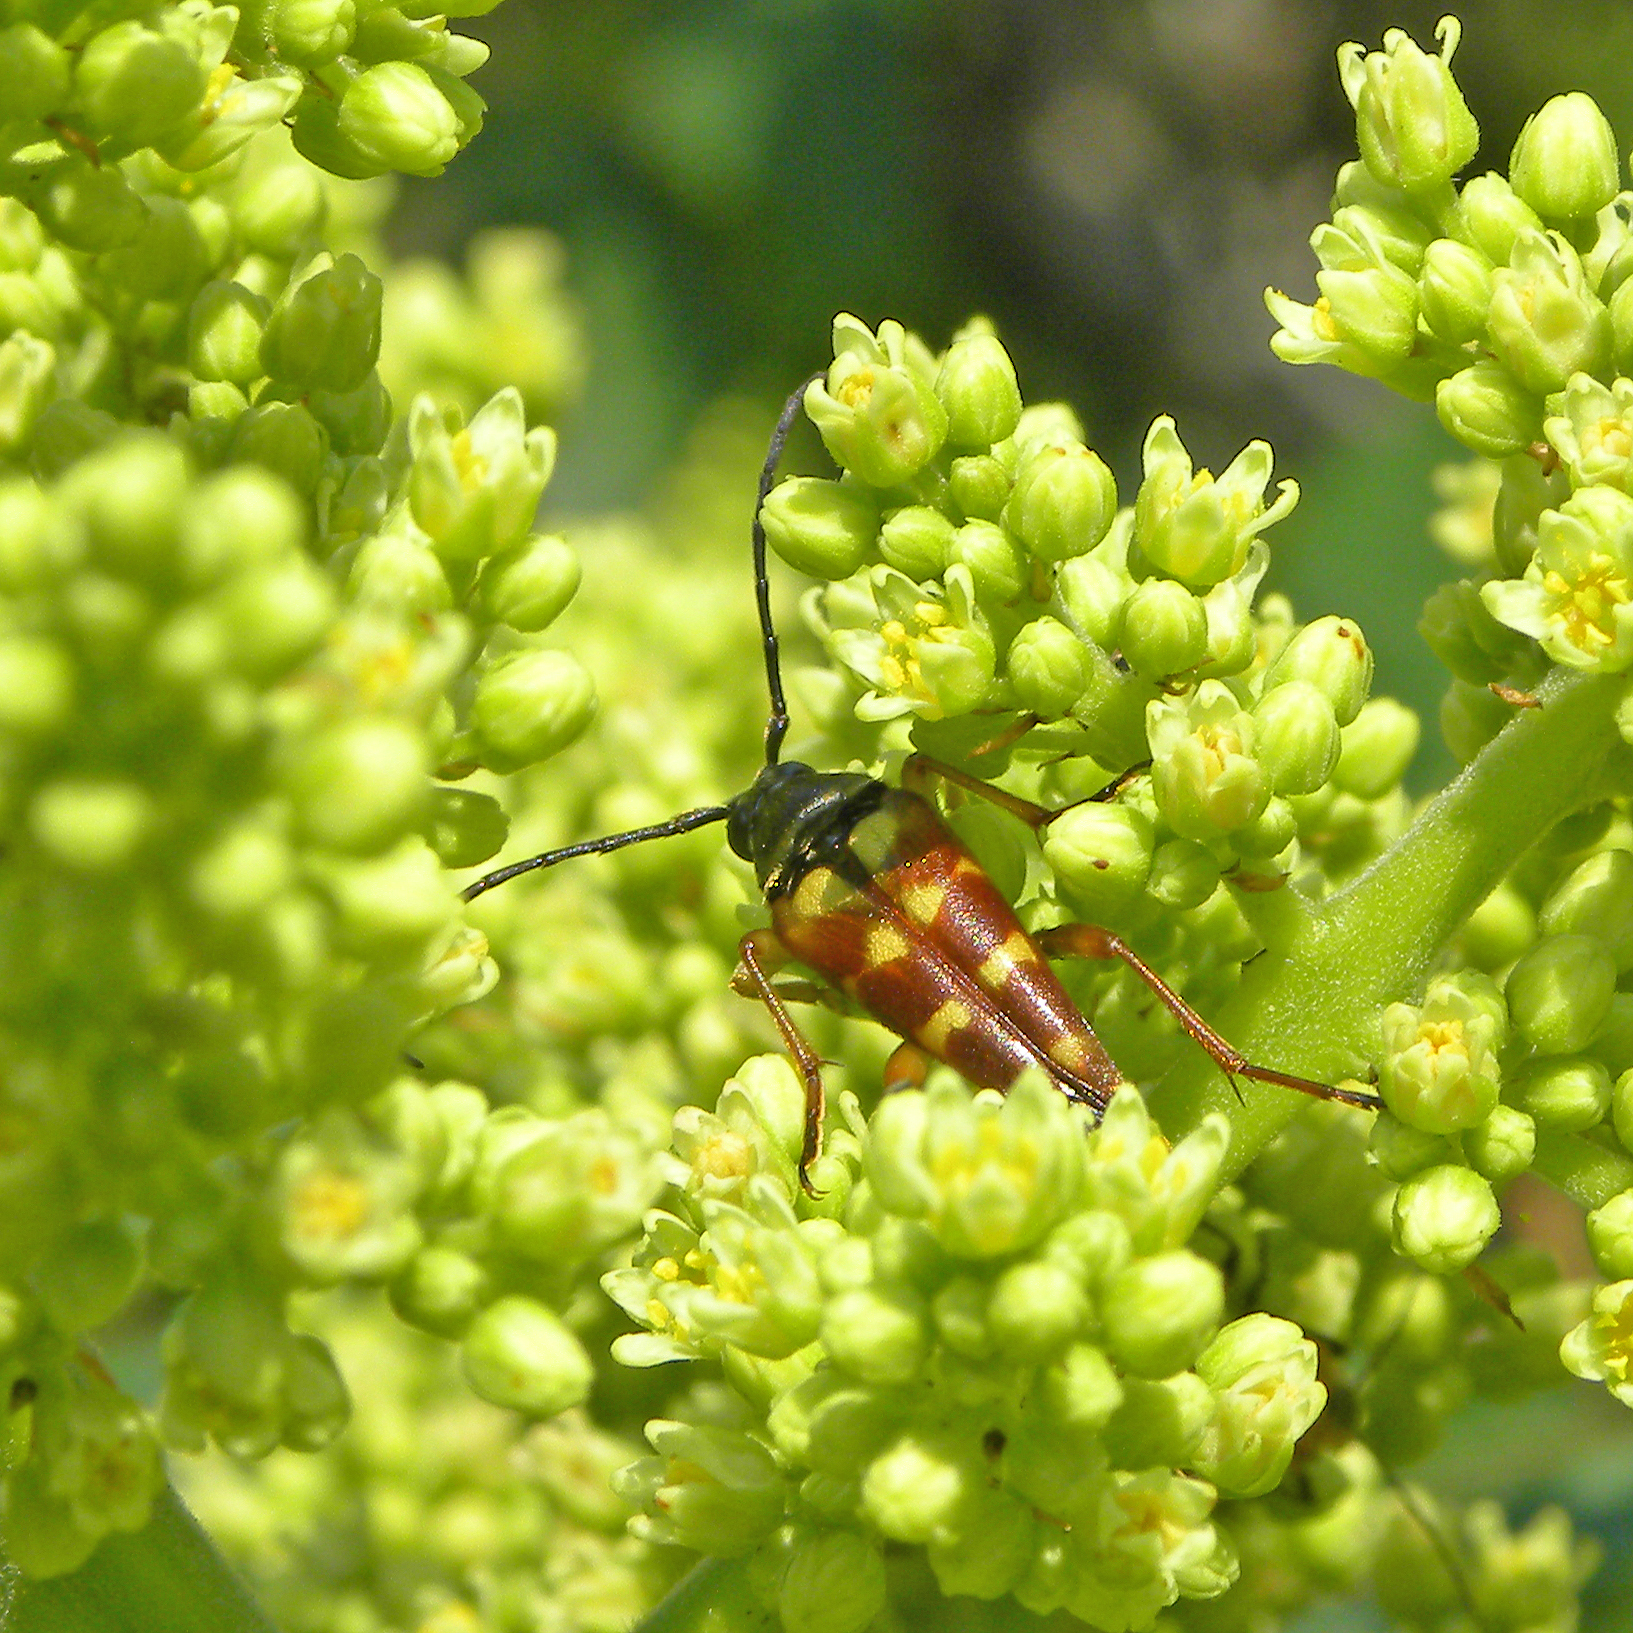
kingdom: Animalia
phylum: Arthropoda
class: Insecta
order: Coleoptera
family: Cerambycidae
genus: Typocerus
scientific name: Typocerus velutinus
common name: Banded longhorn beetle
